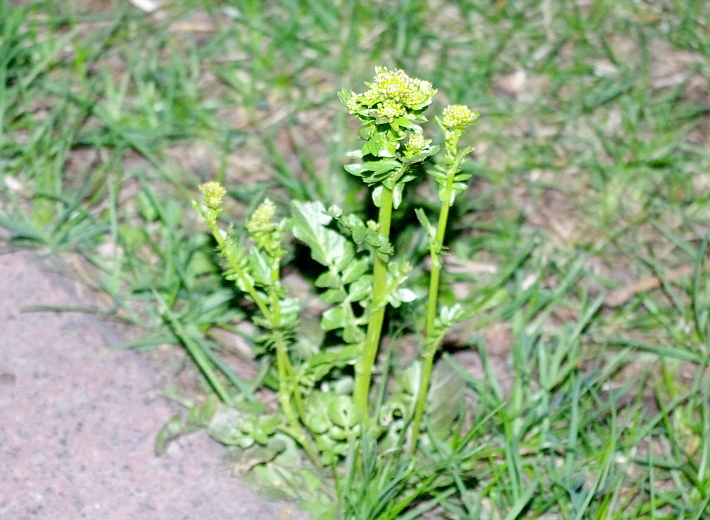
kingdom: Plantae
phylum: Tracheophyta
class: Magnoliopsida
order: Brassicales
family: Brassicaceae
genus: Barbarea
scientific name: Barbarea vulgaris
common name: Cressy-greens
